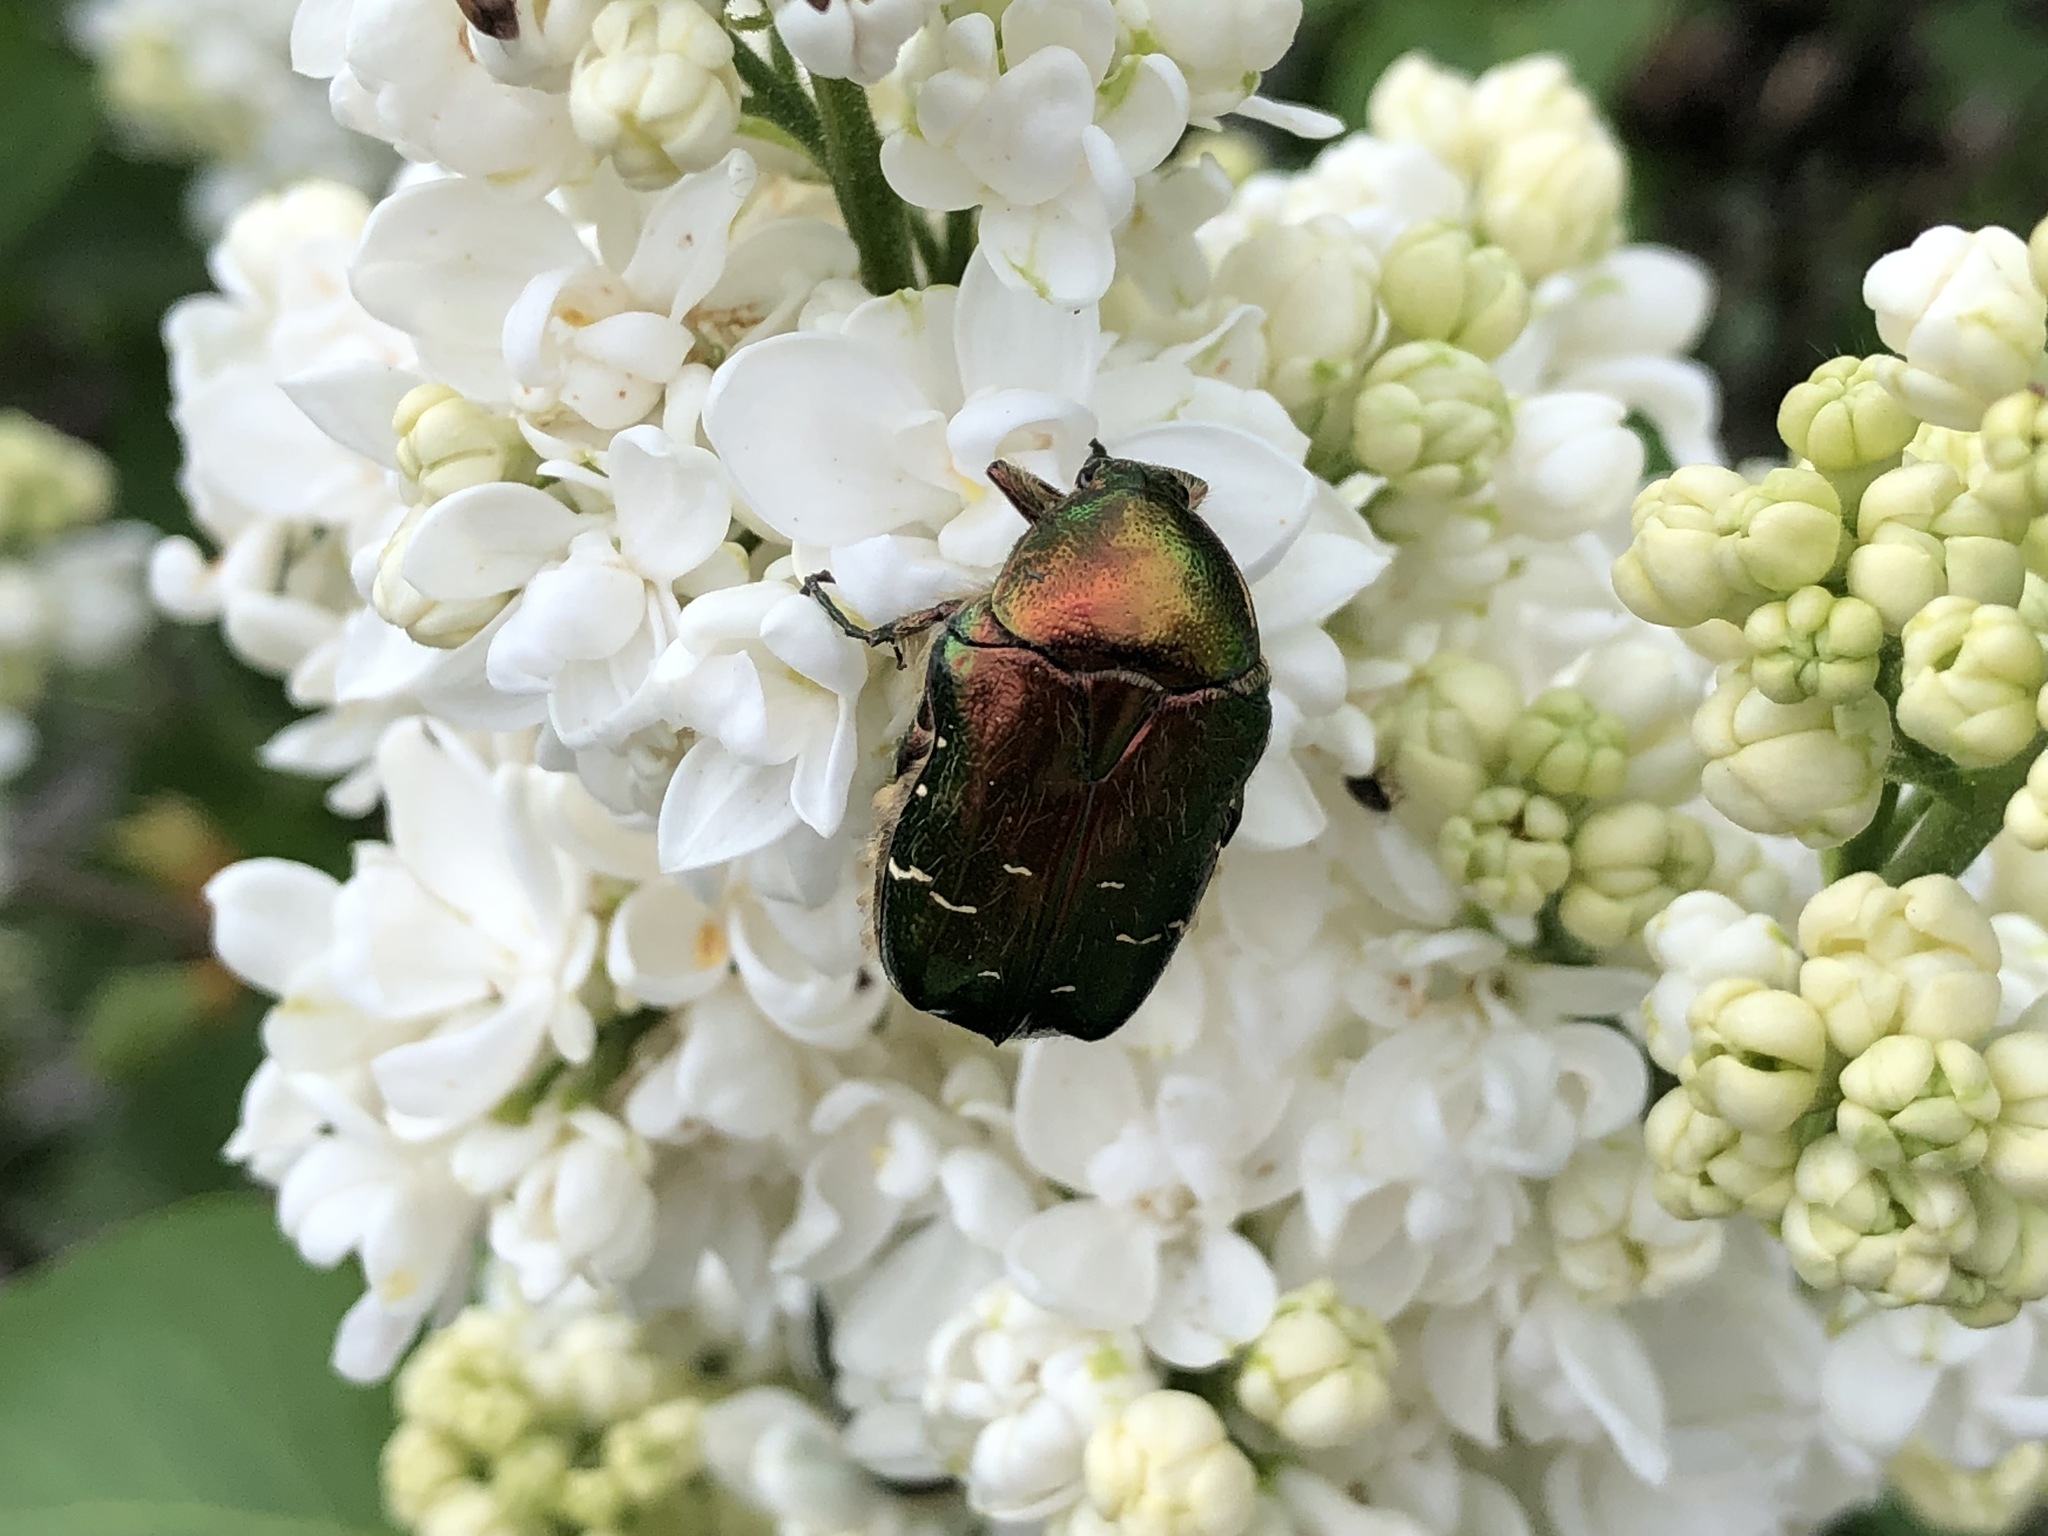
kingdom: Animalia
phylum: Arthropoda
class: Insecta
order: Coleoptera
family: Scarabaeidae
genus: Cetonia
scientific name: Cetonia aurata
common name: Rose chafer
